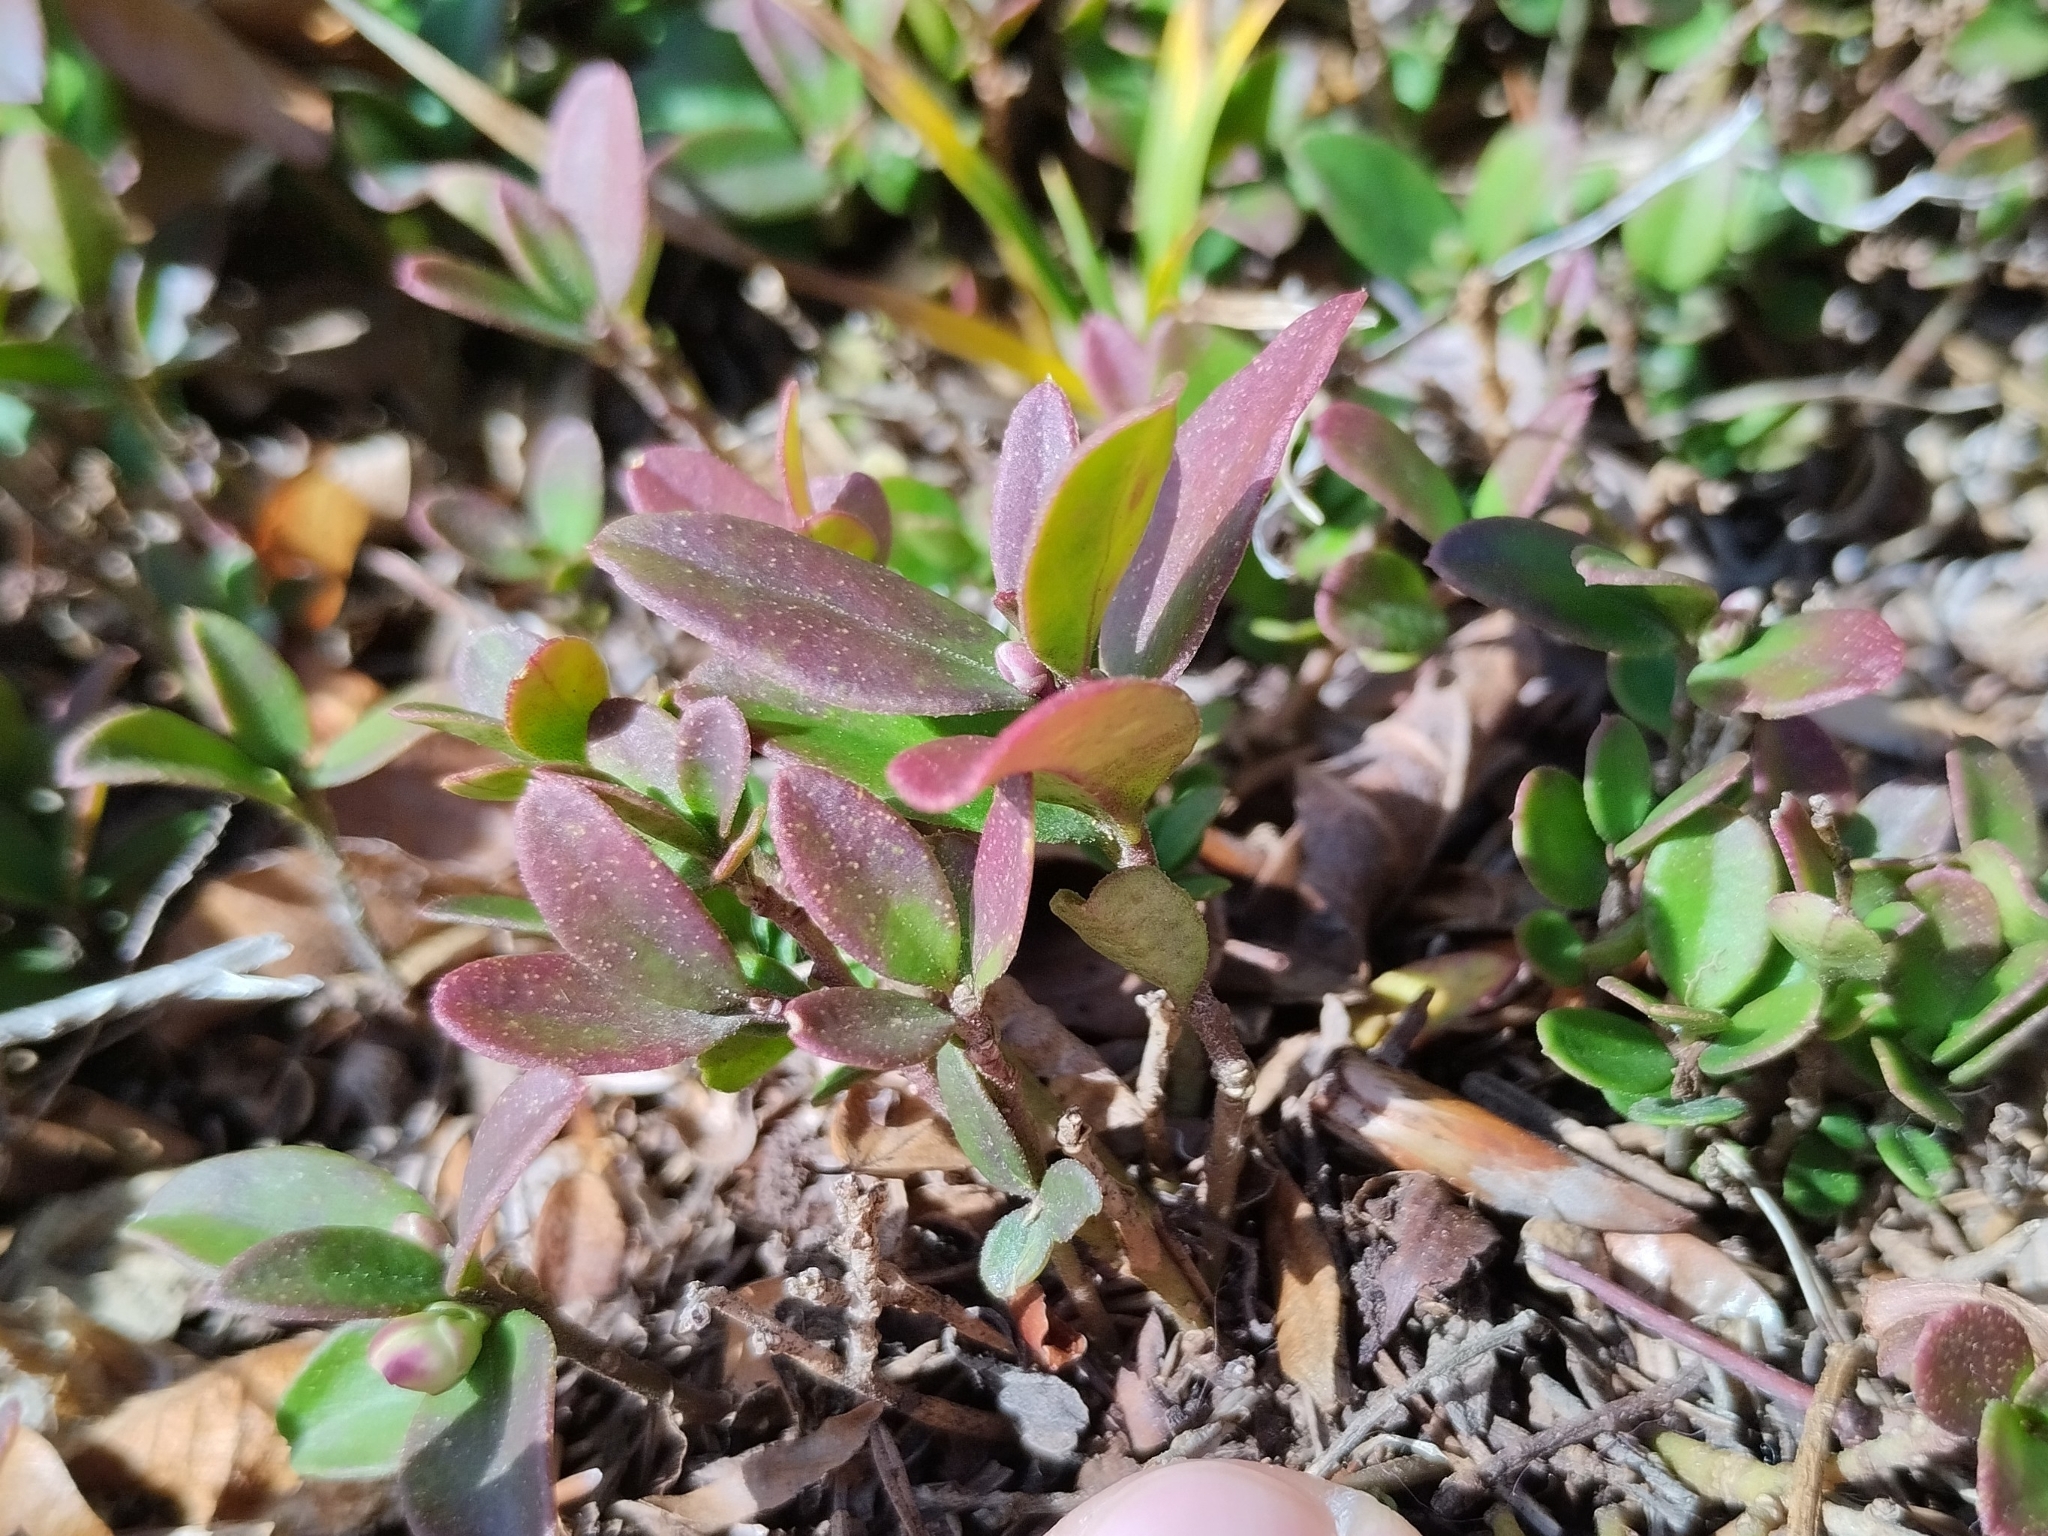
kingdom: Plantae
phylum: Tracheophyta
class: Magnoliopsida
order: Fabales
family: Polygalaceae
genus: Polygaloides
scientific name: Polygaloides chamaebuxus
